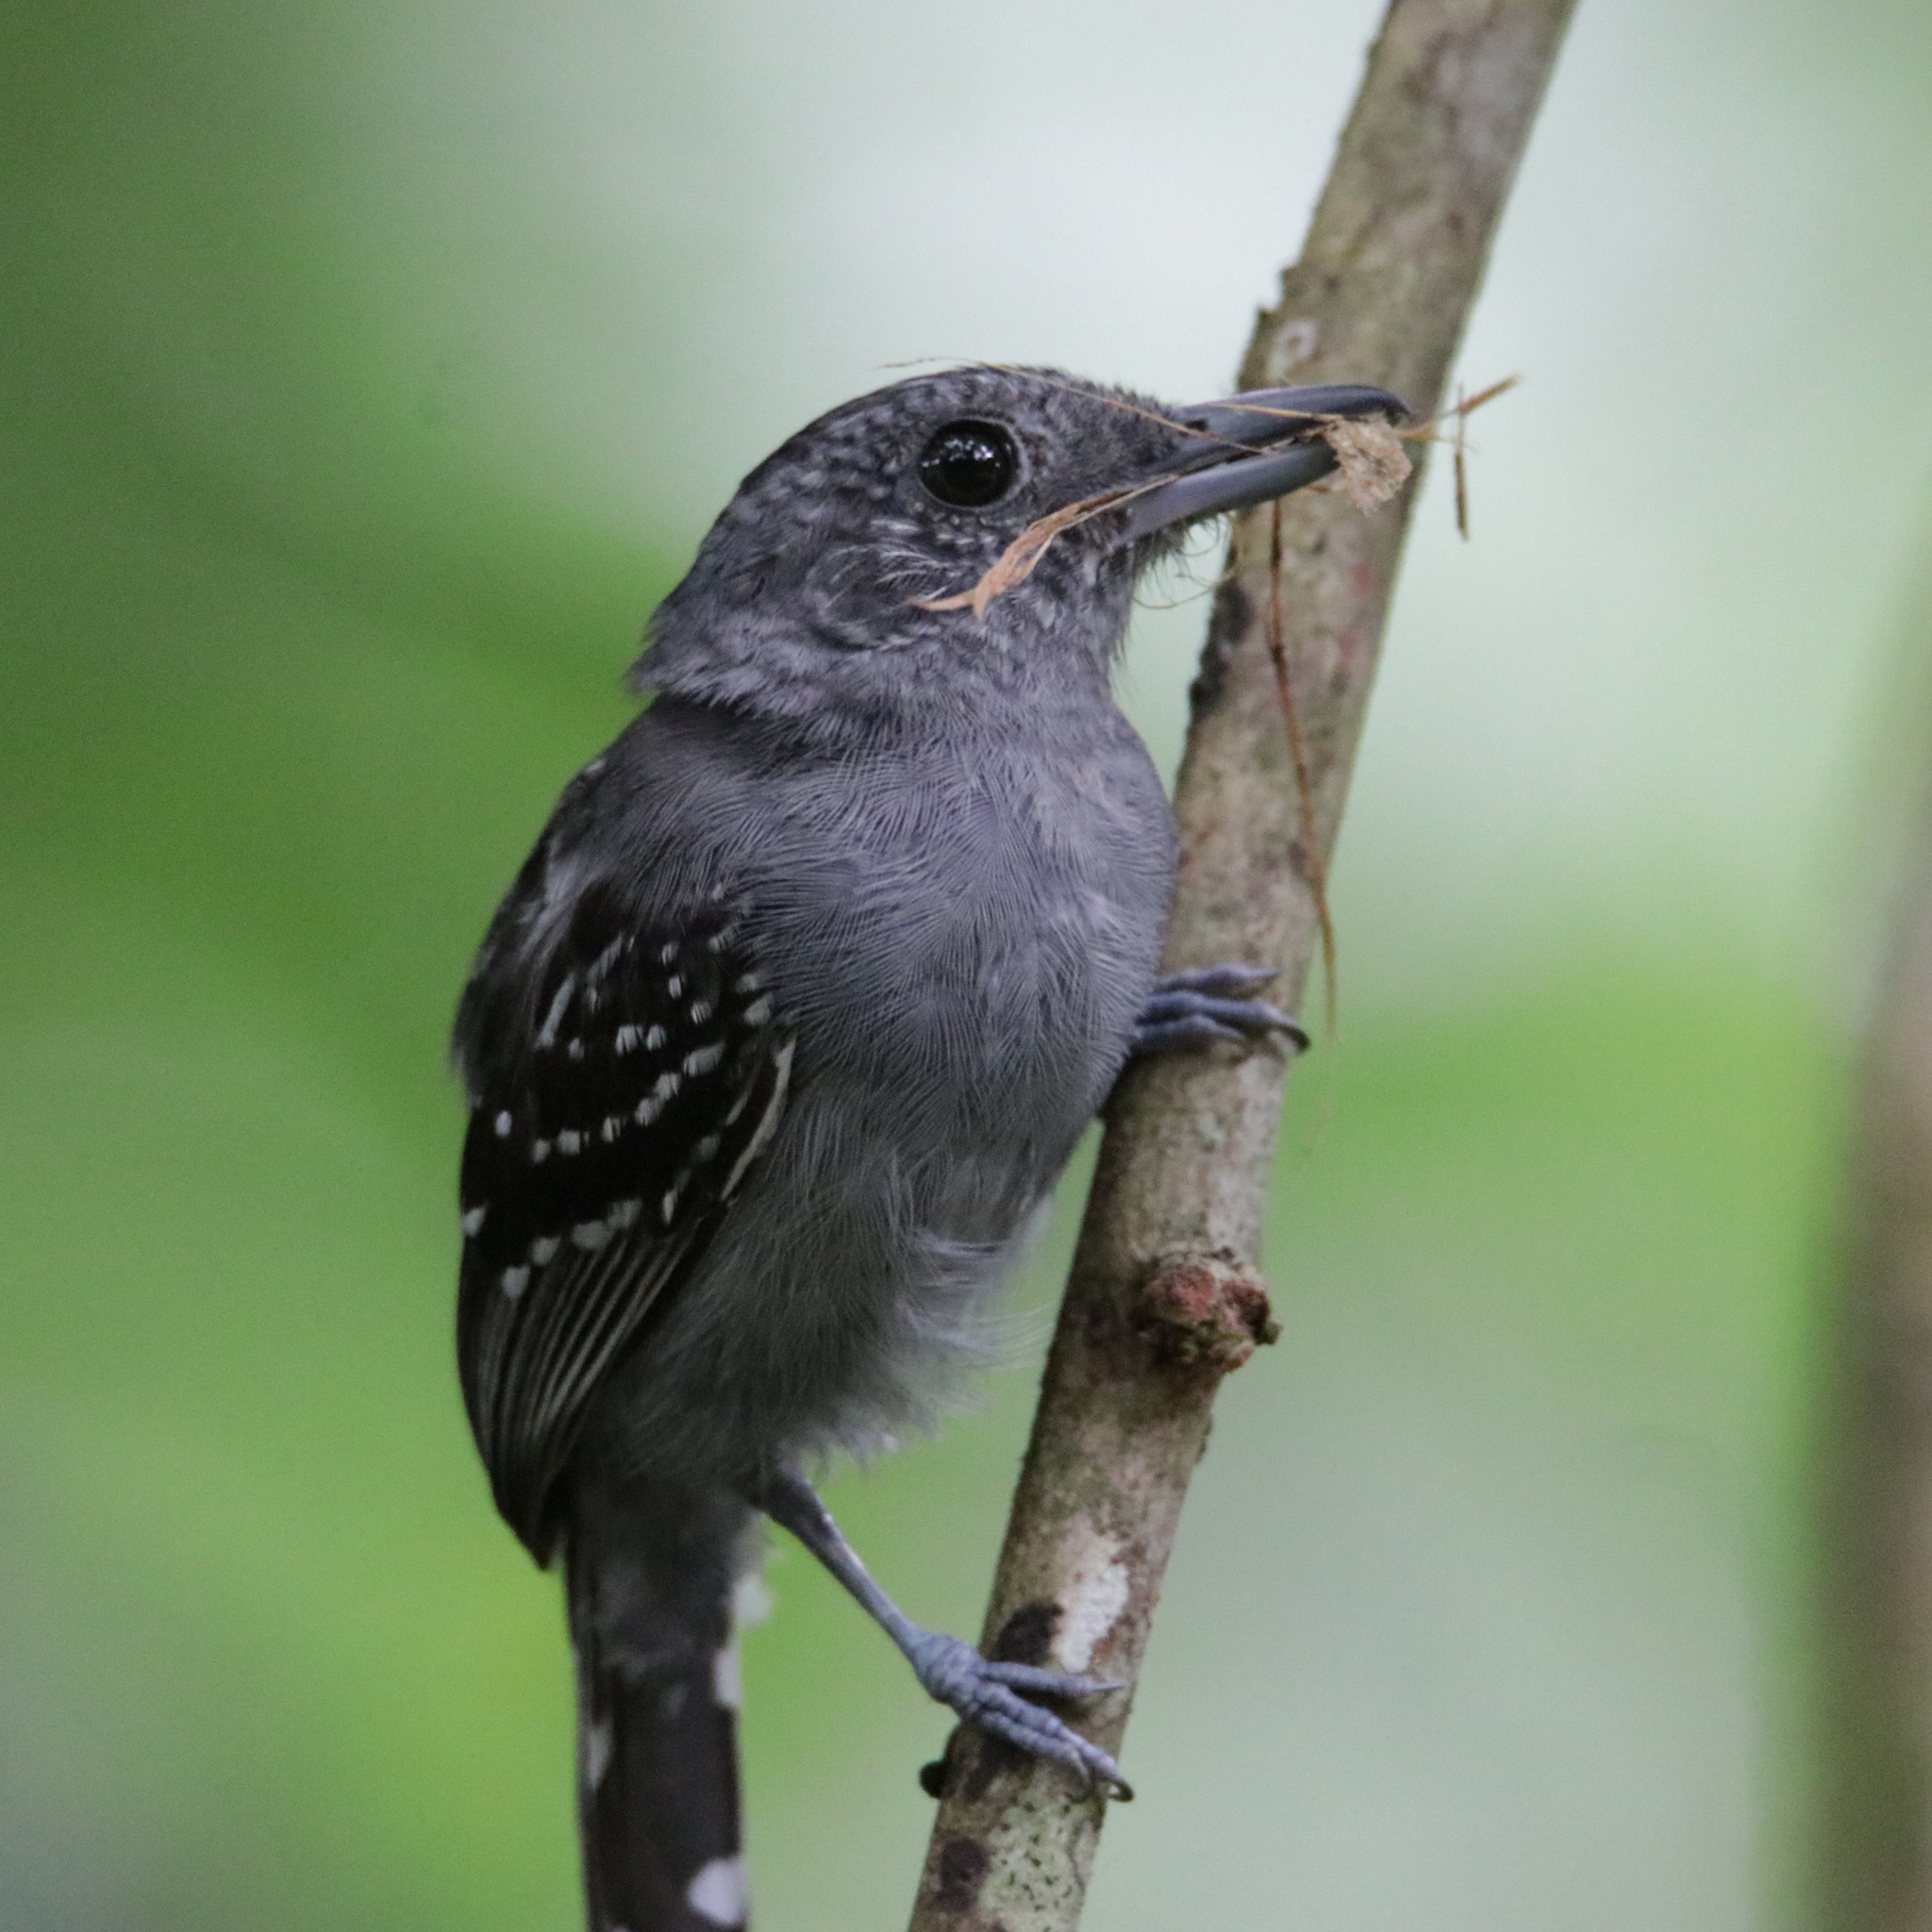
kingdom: Animalia
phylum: Chordata
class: Aves
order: Passeriformes
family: Thamnophilidae
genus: Thamnophilus
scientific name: Thamnophilus atrinucha
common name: Black-crowned antshrike
